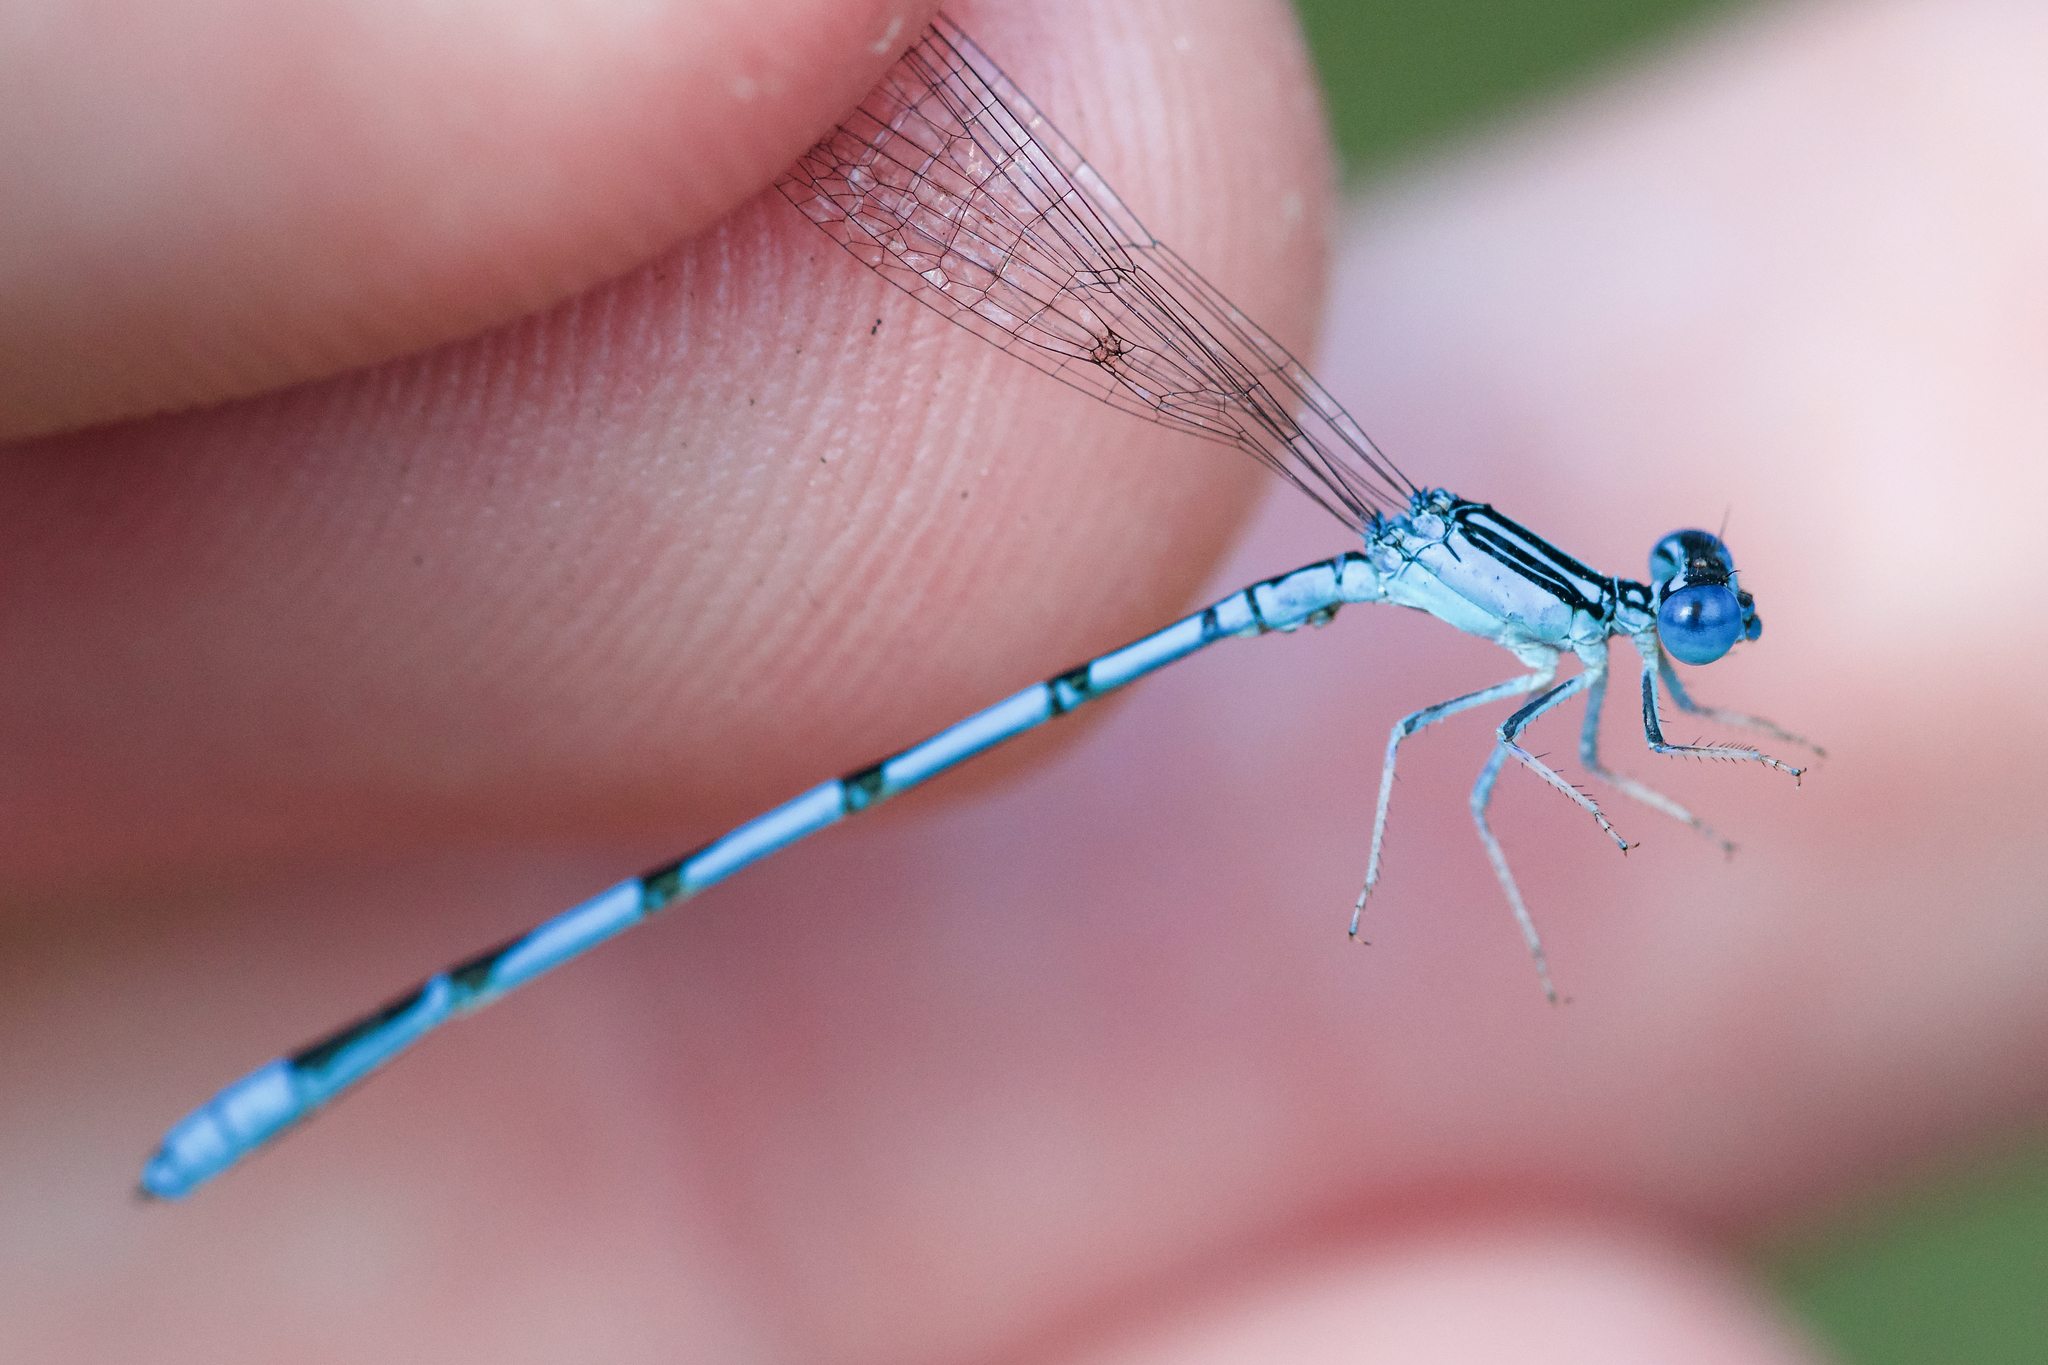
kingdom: Animalia
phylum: Arthropoda
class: Insecta
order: Odonata
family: Coenagrionidae
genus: Enallagma
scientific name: Enallagma basidens
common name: Double-striped bluet
